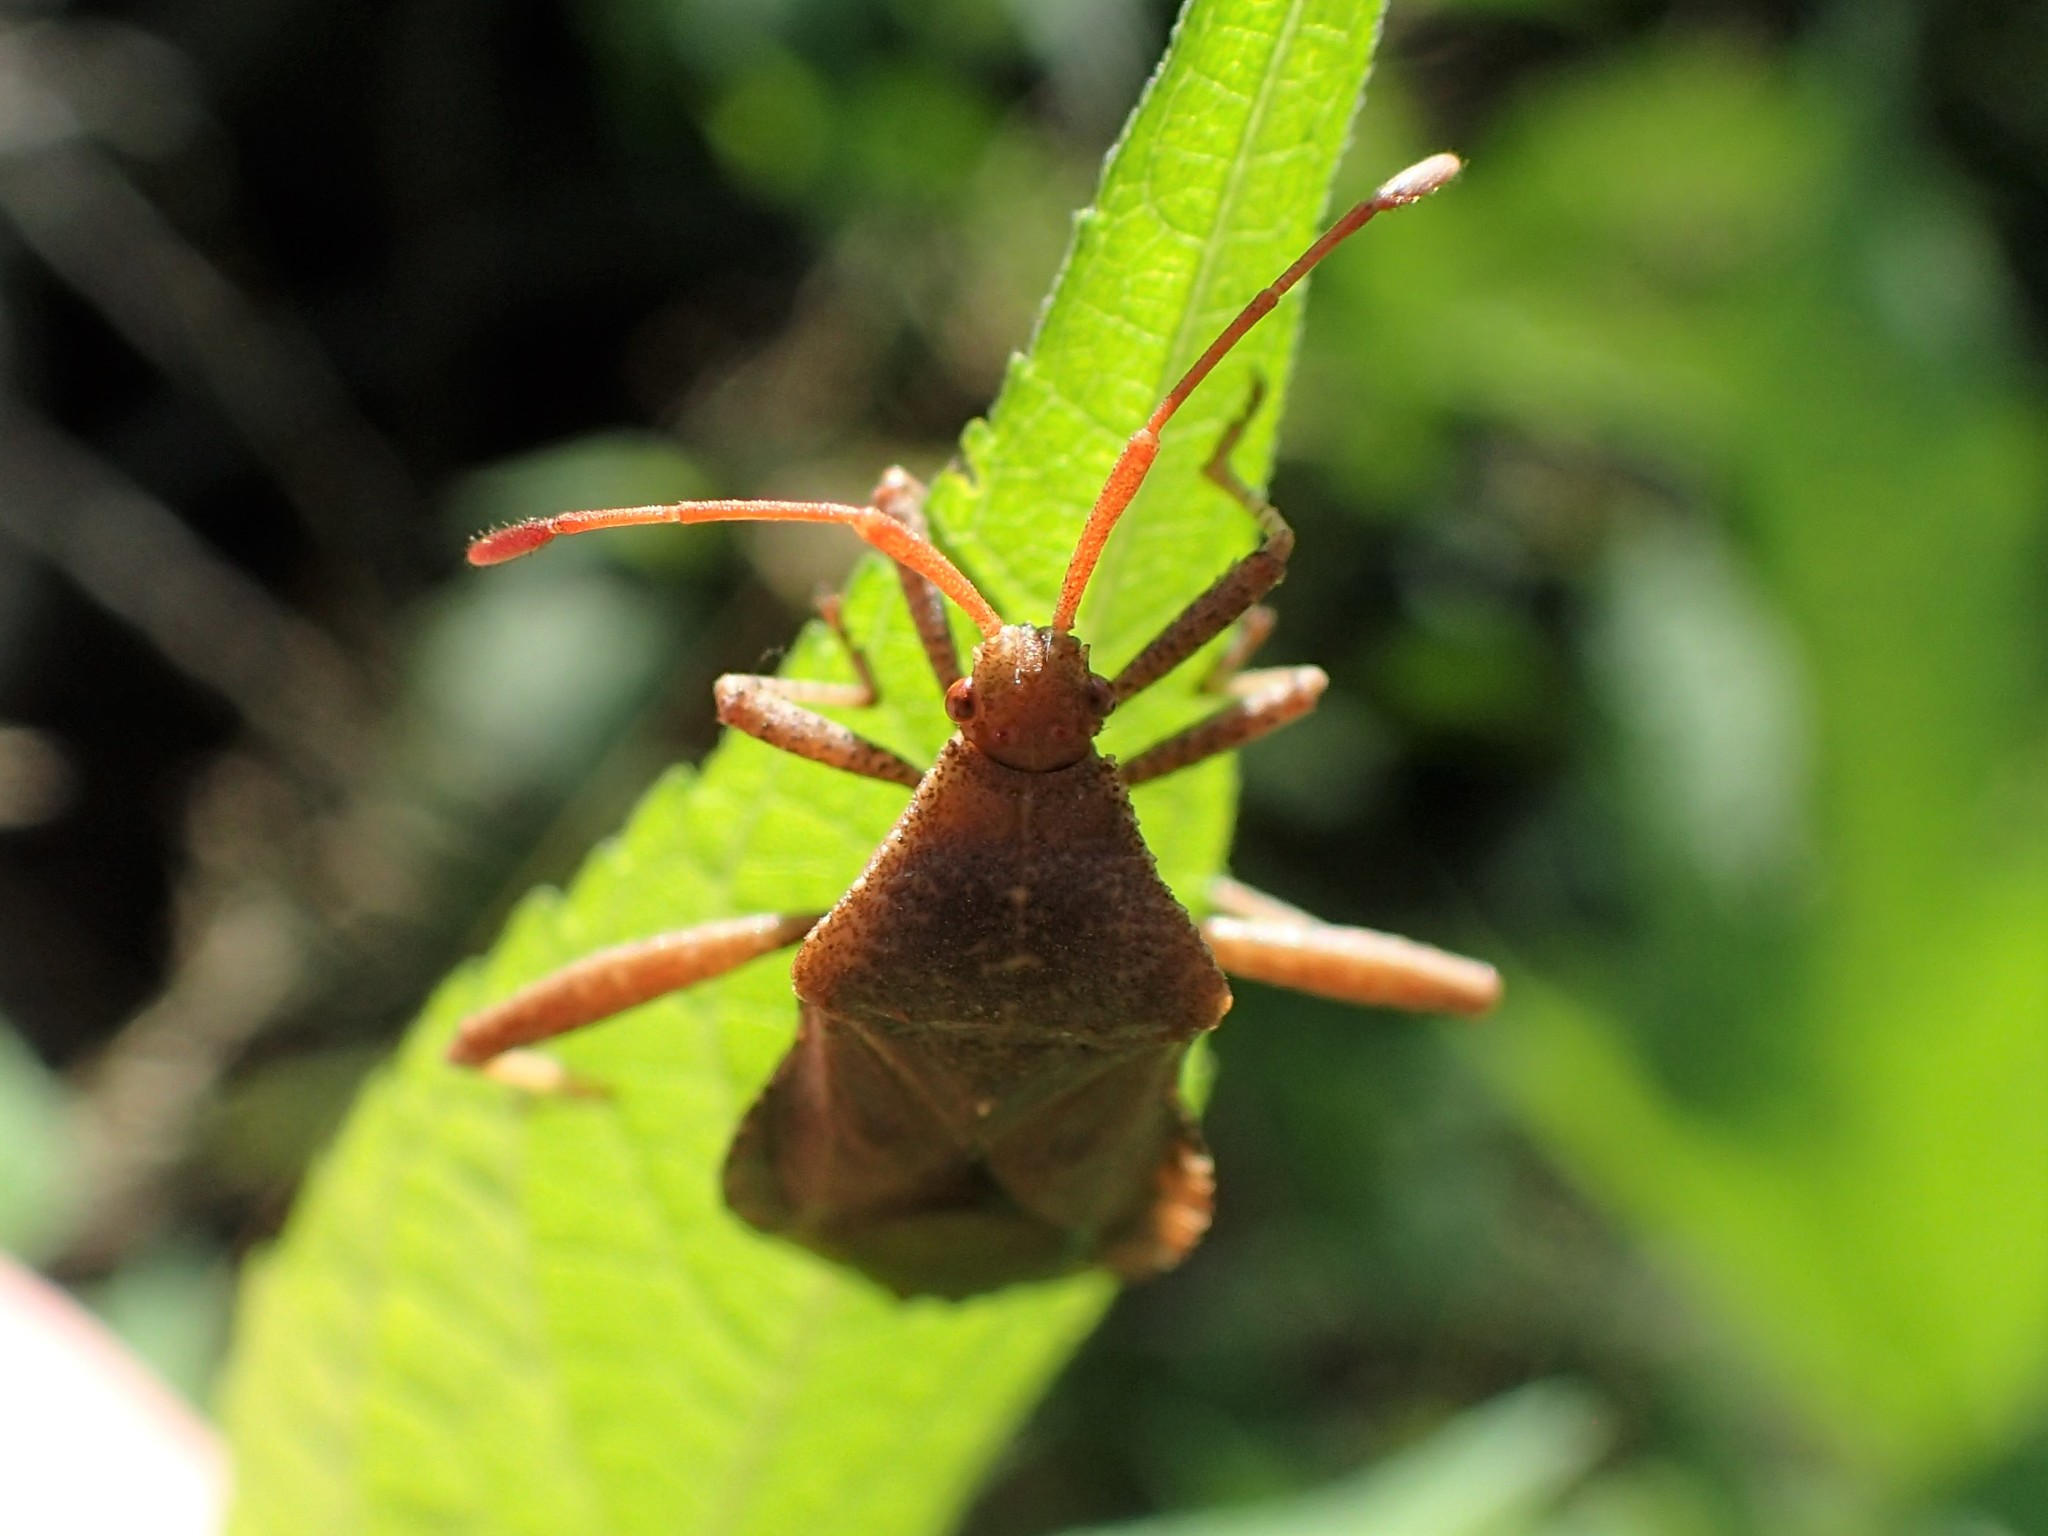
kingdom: Animalia
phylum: Arthropoda
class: Insecta
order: Hemiptera
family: Coreidae
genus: Euthochtha
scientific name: Euthochtha galeator
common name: Helmeted squash bug
